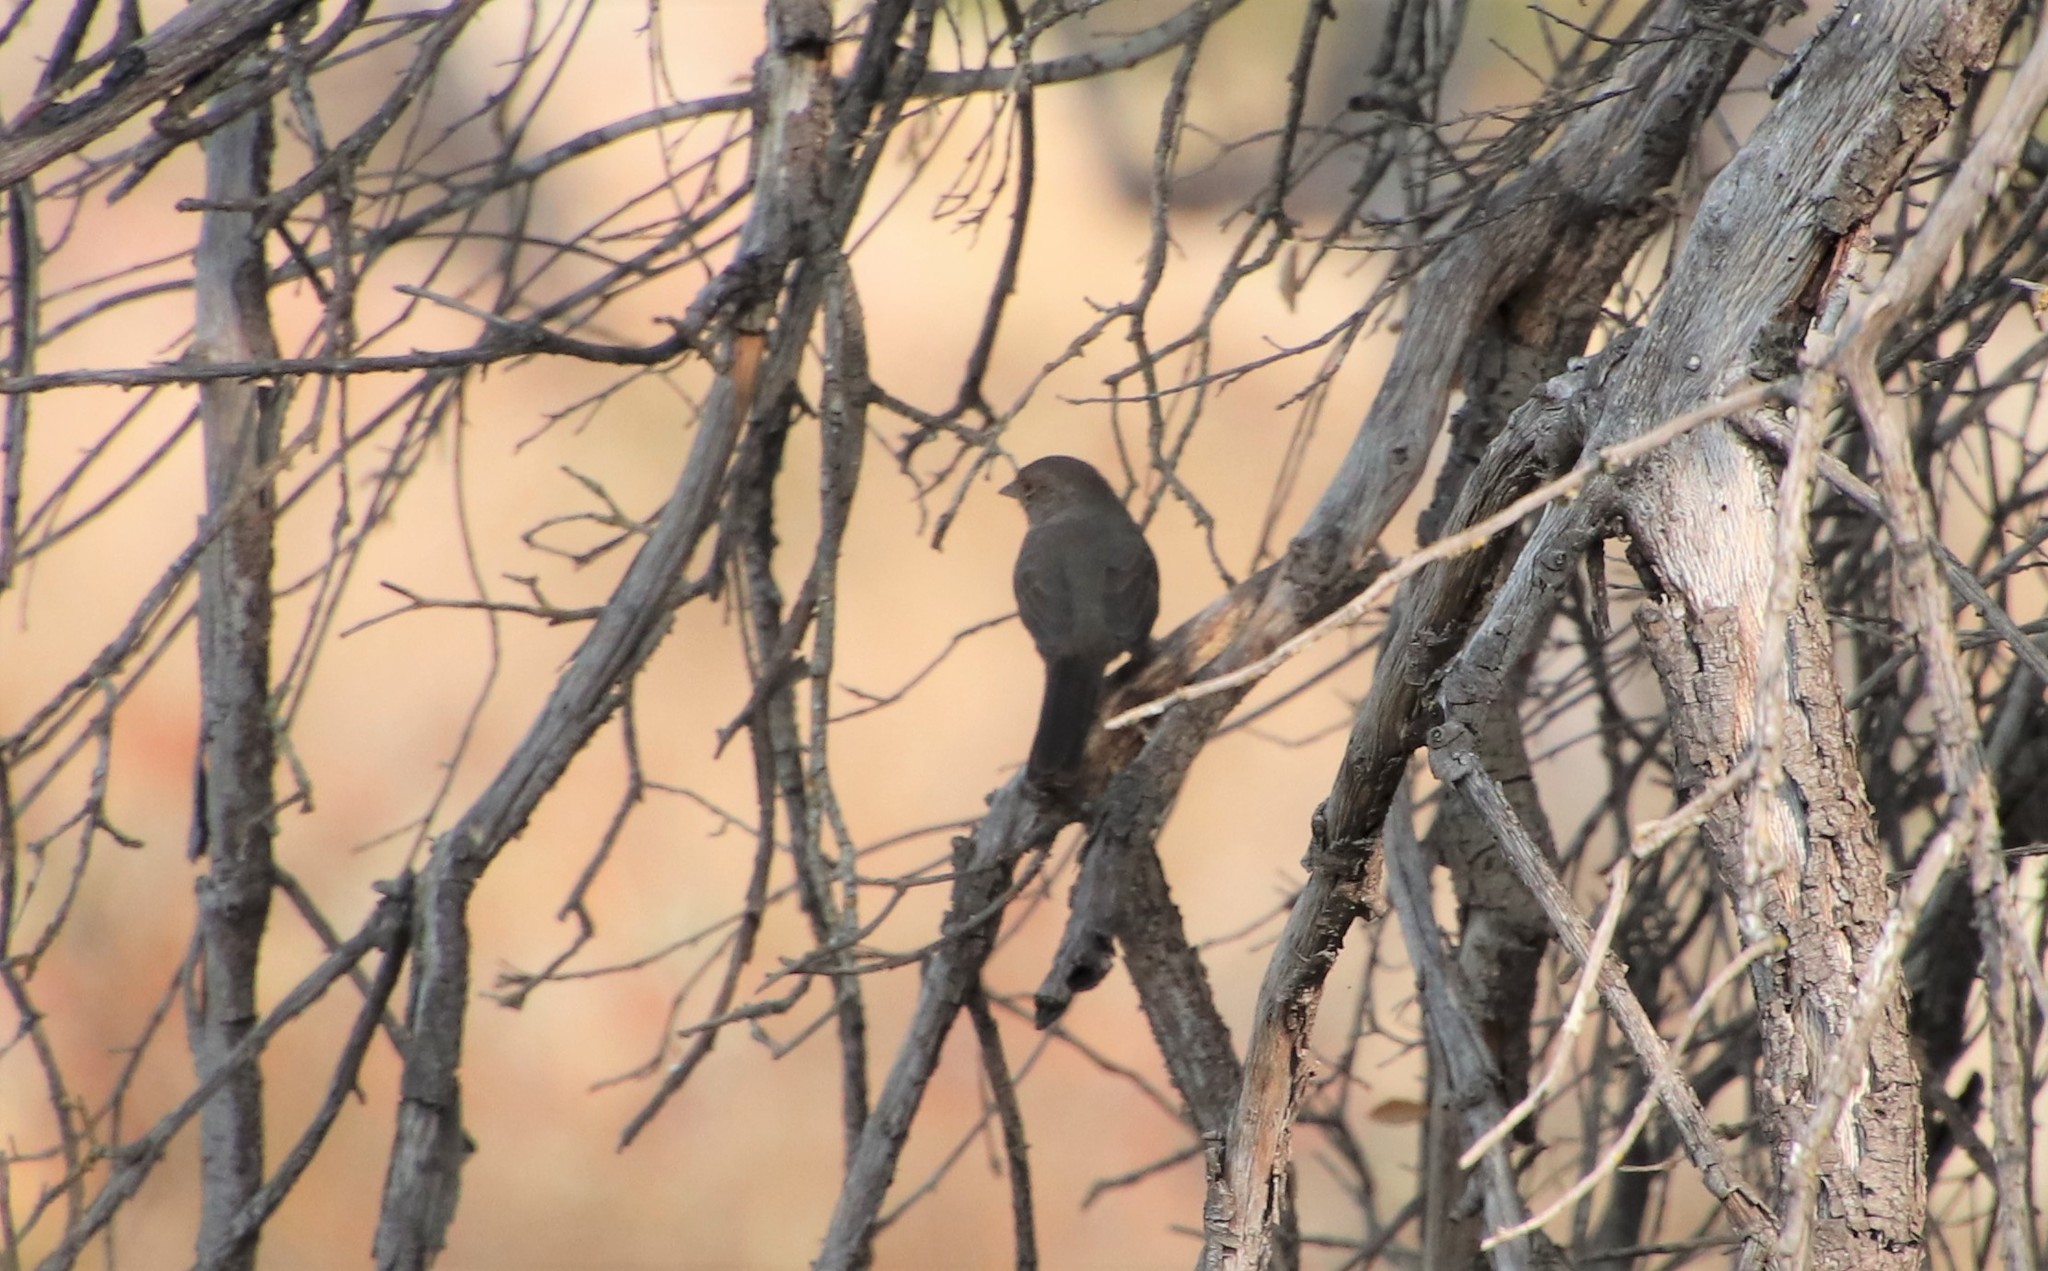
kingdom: Animalia
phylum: Chordata
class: Aves
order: Passeriformes
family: Passerellidae
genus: Melozone
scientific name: Melozone crissalis
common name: California towhee
